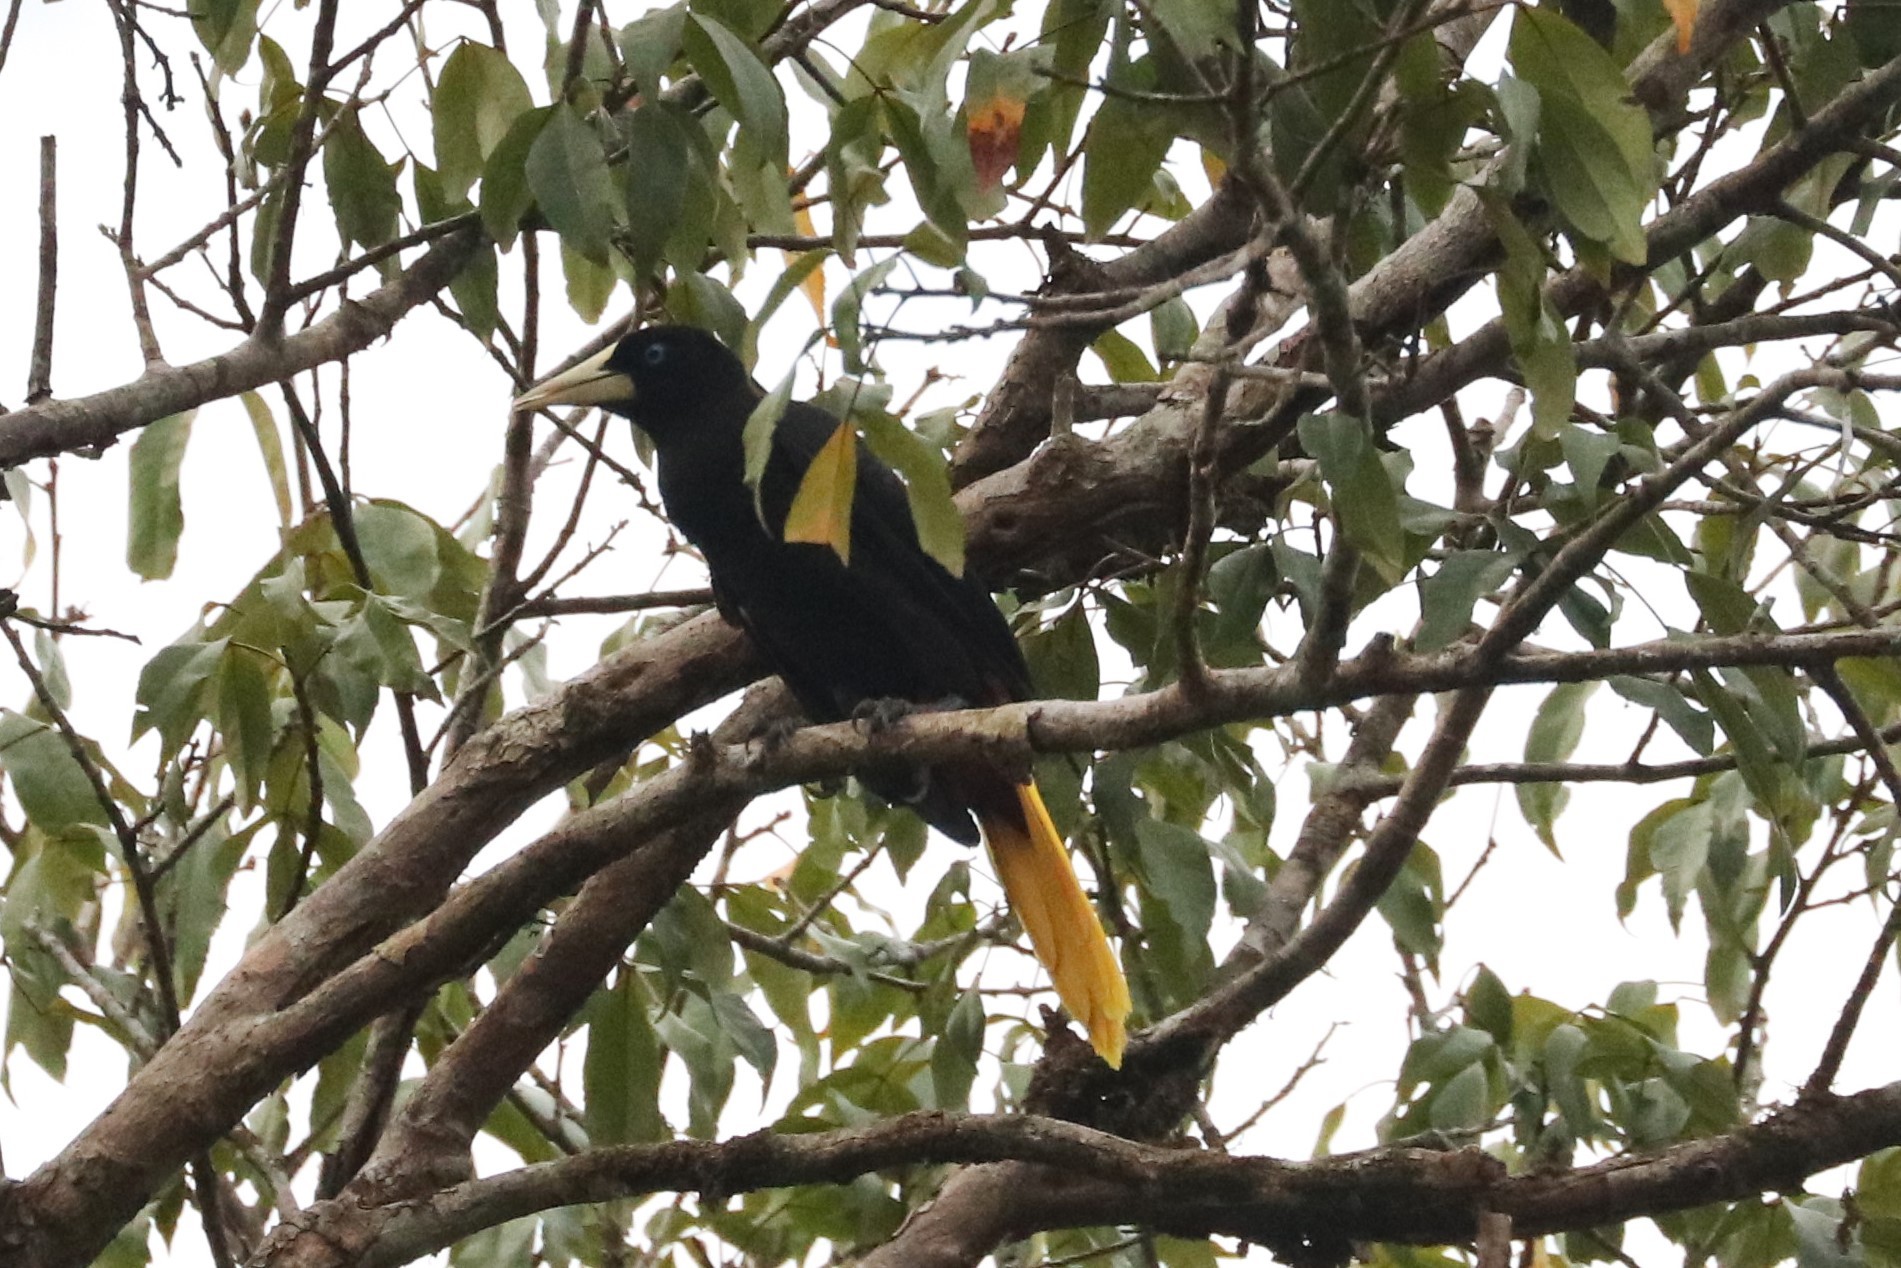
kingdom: Animalia
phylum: Chordata
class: Aves
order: Passeriformes
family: Icteridae
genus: Psarocolius
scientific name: Psarocolius decumanus
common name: Crested oropendola
